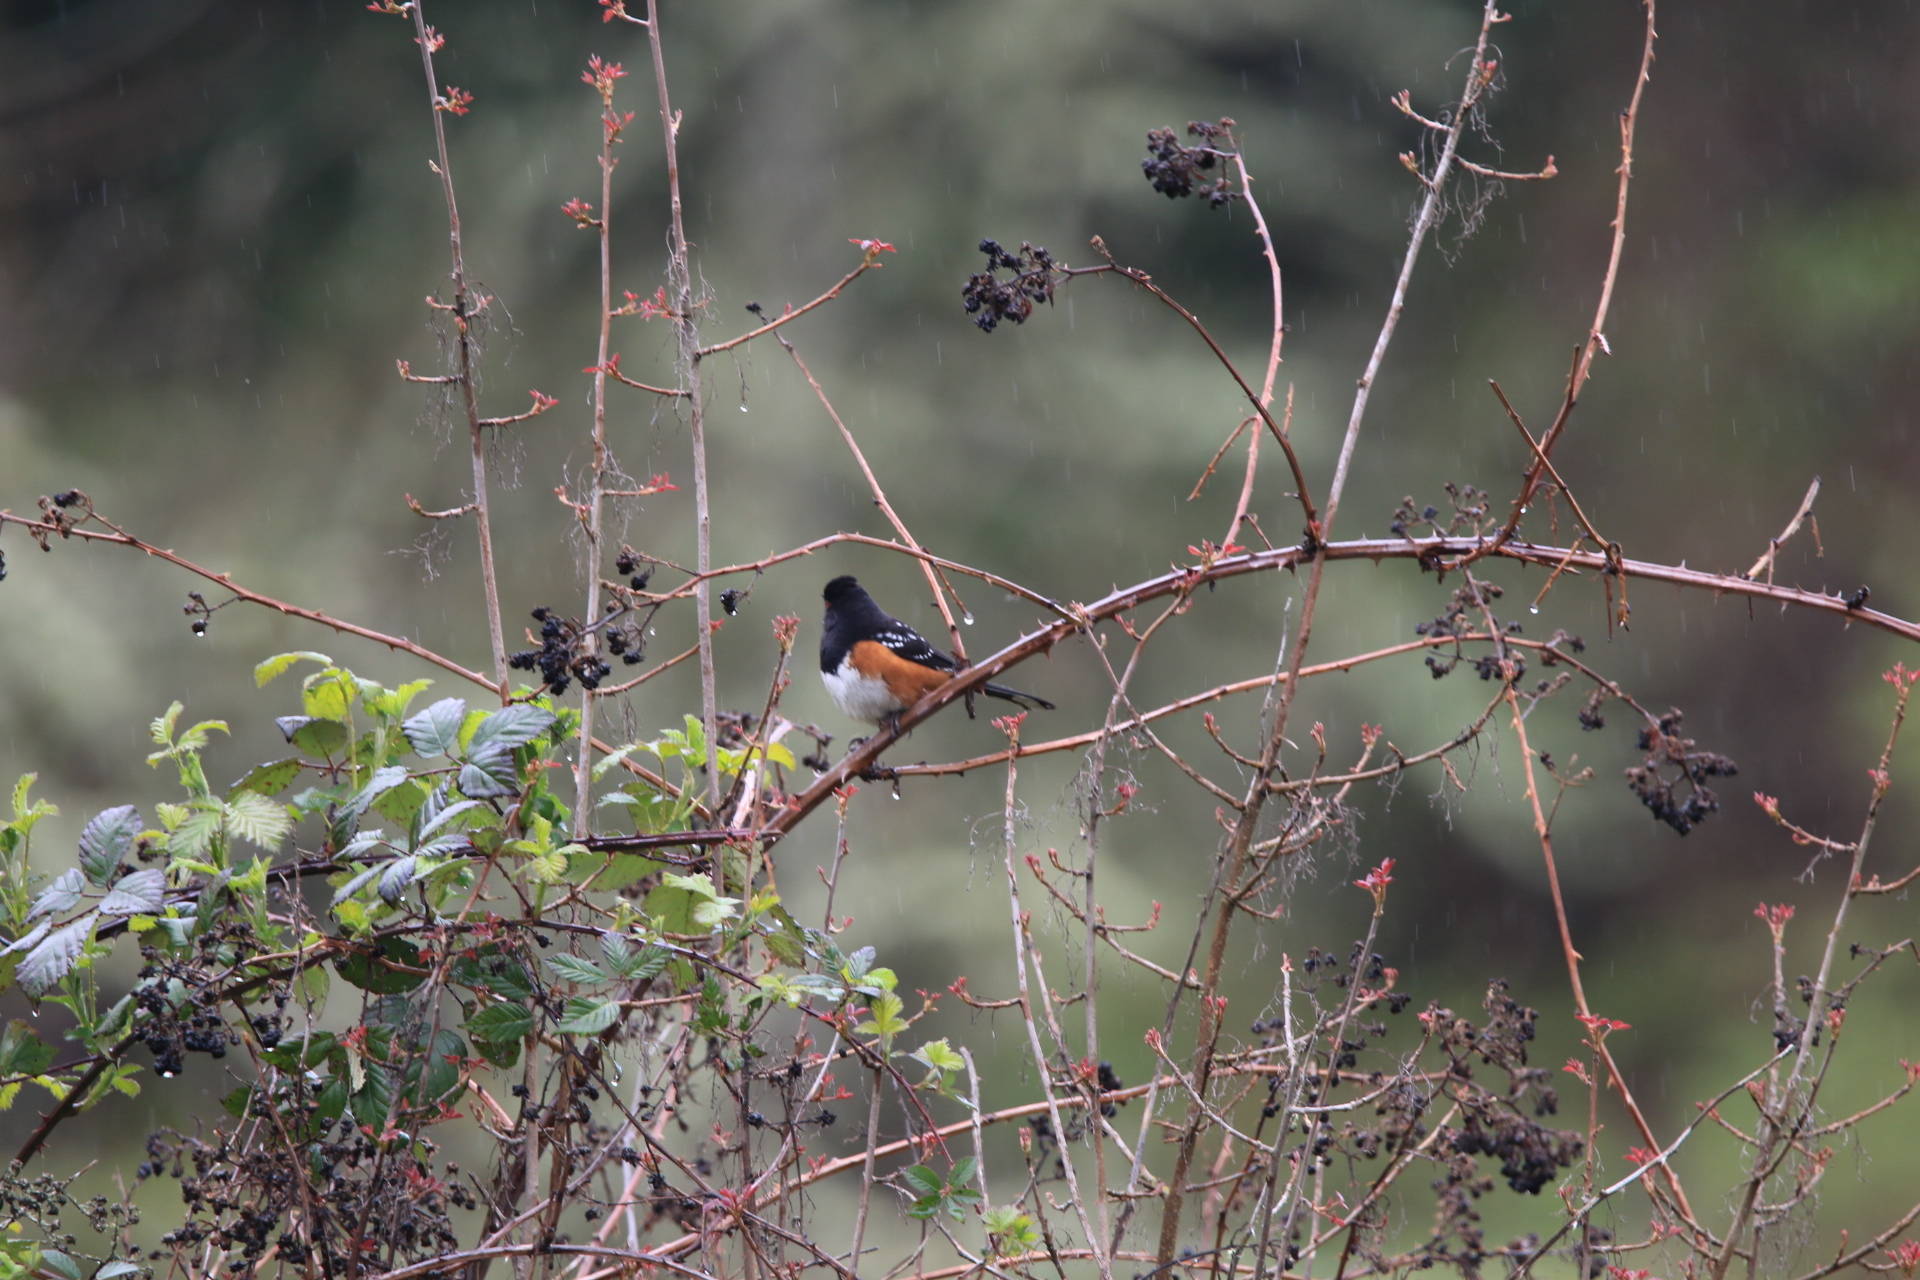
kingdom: Animalia
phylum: Chordata
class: Aves
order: Passeriformes
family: Passerellidae
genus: Pipilo
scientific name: Pipilo maculatus
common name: Spotted towhee
